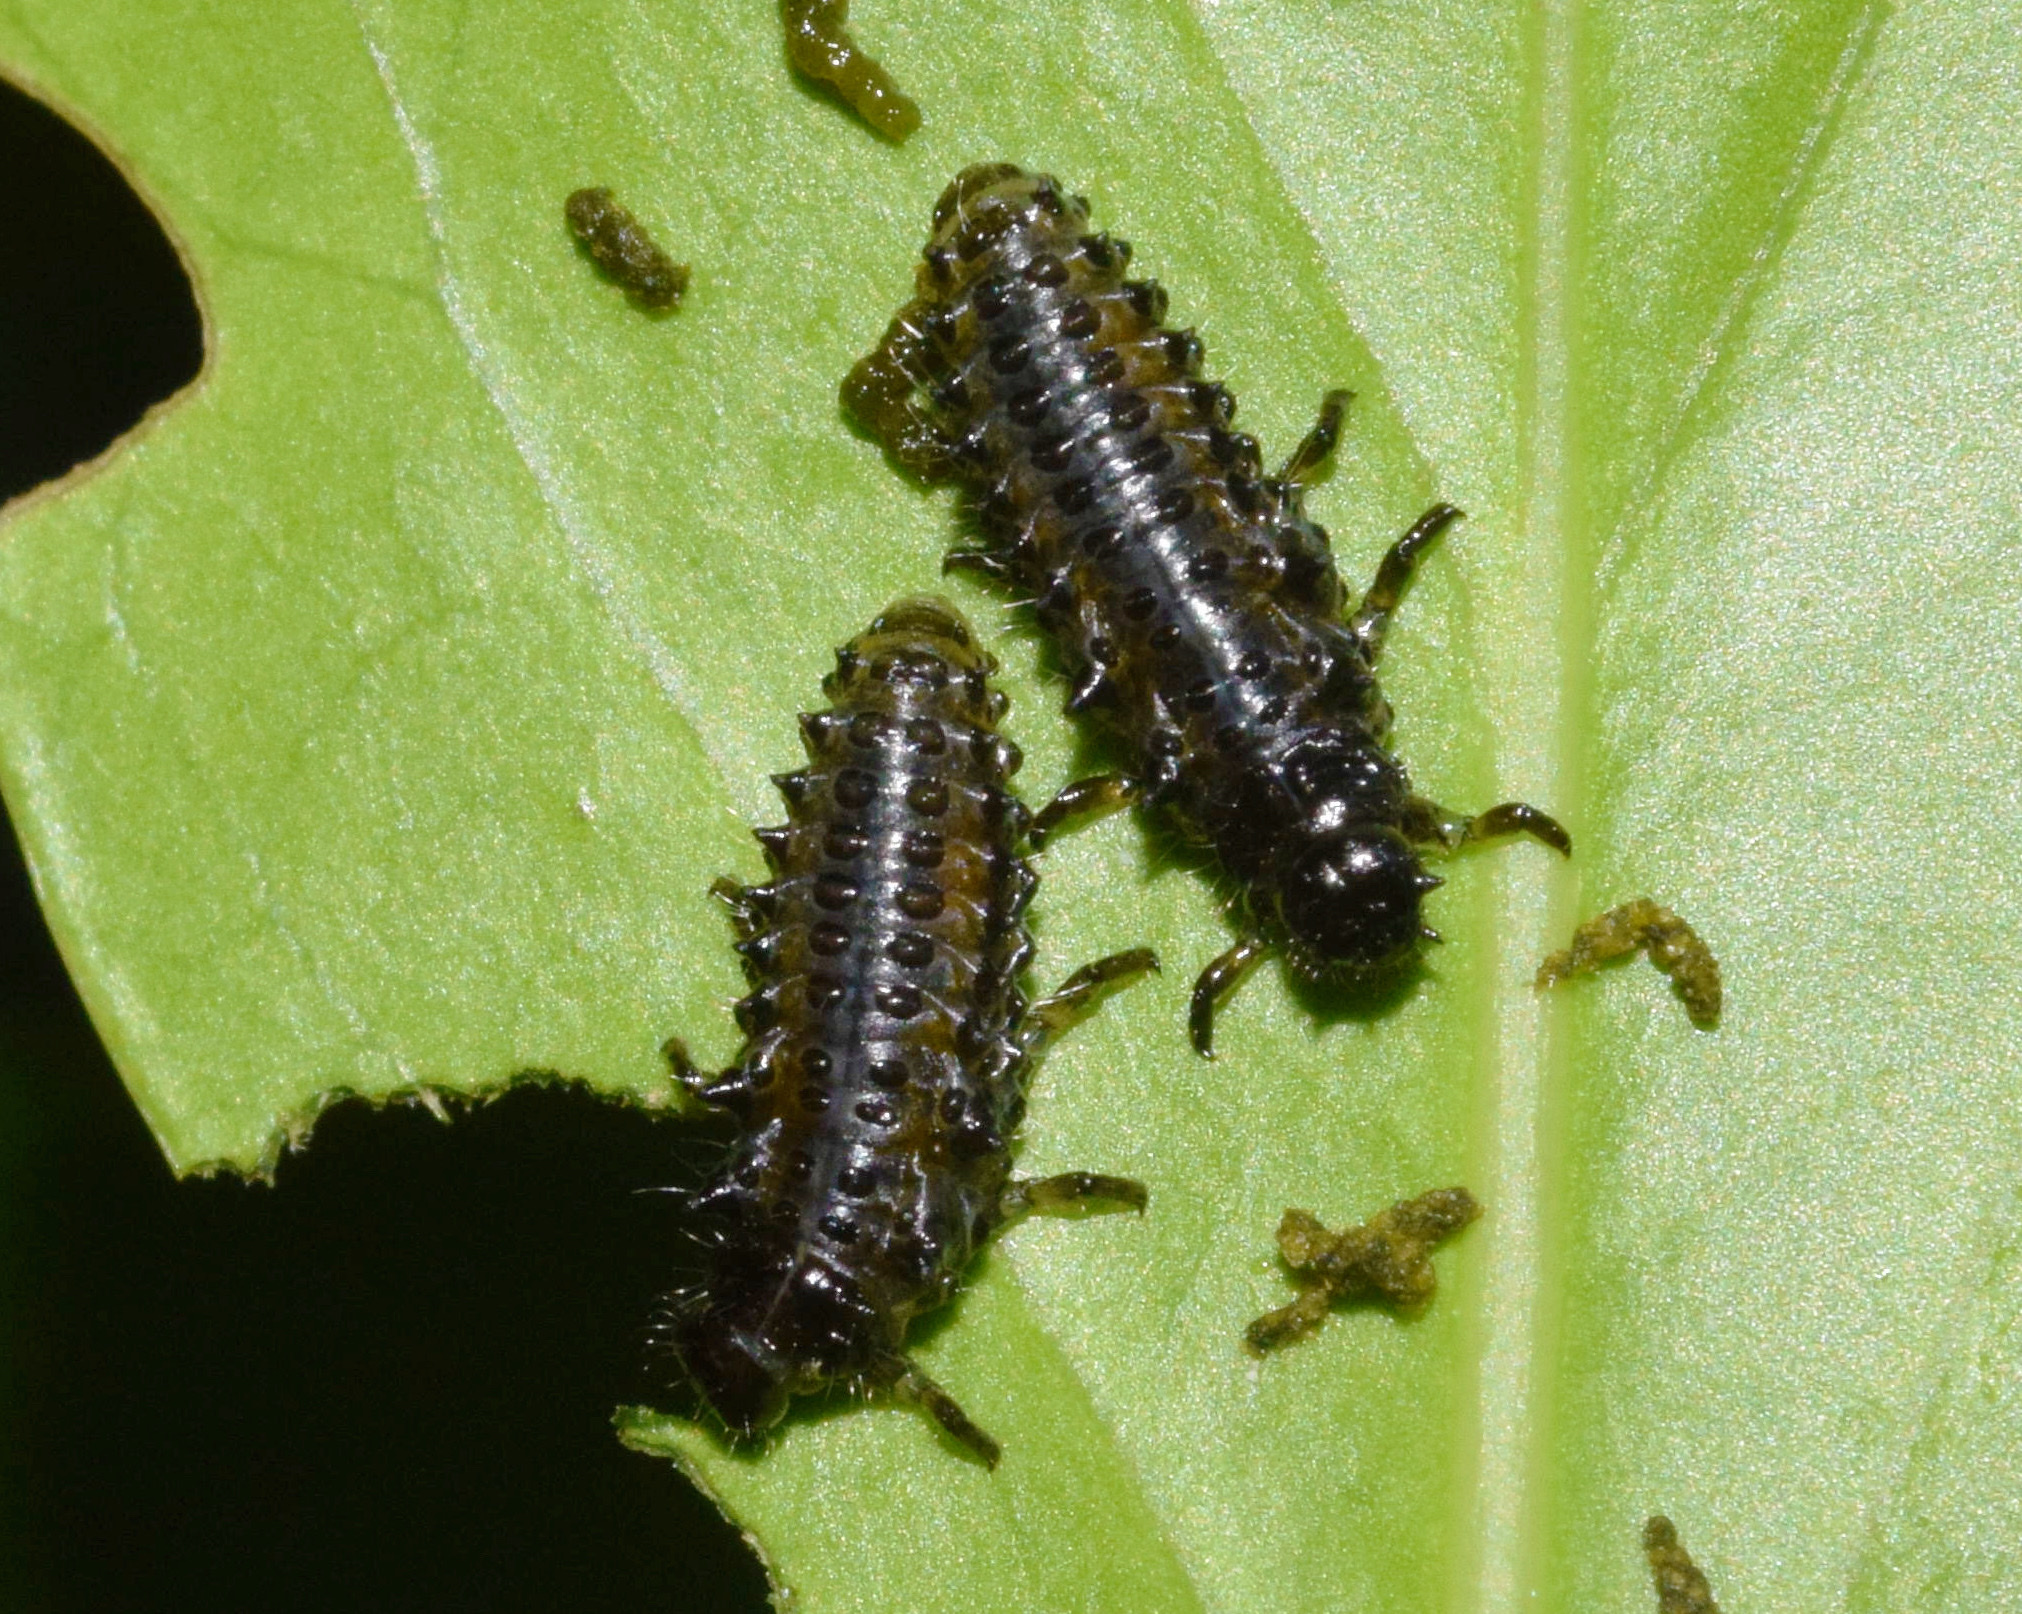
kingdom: Animalia
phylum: Arthropoda
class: Insecta
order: Coleoptera
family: Chrysomelidae
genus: Plagiosterna
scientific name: Plagiosterna
